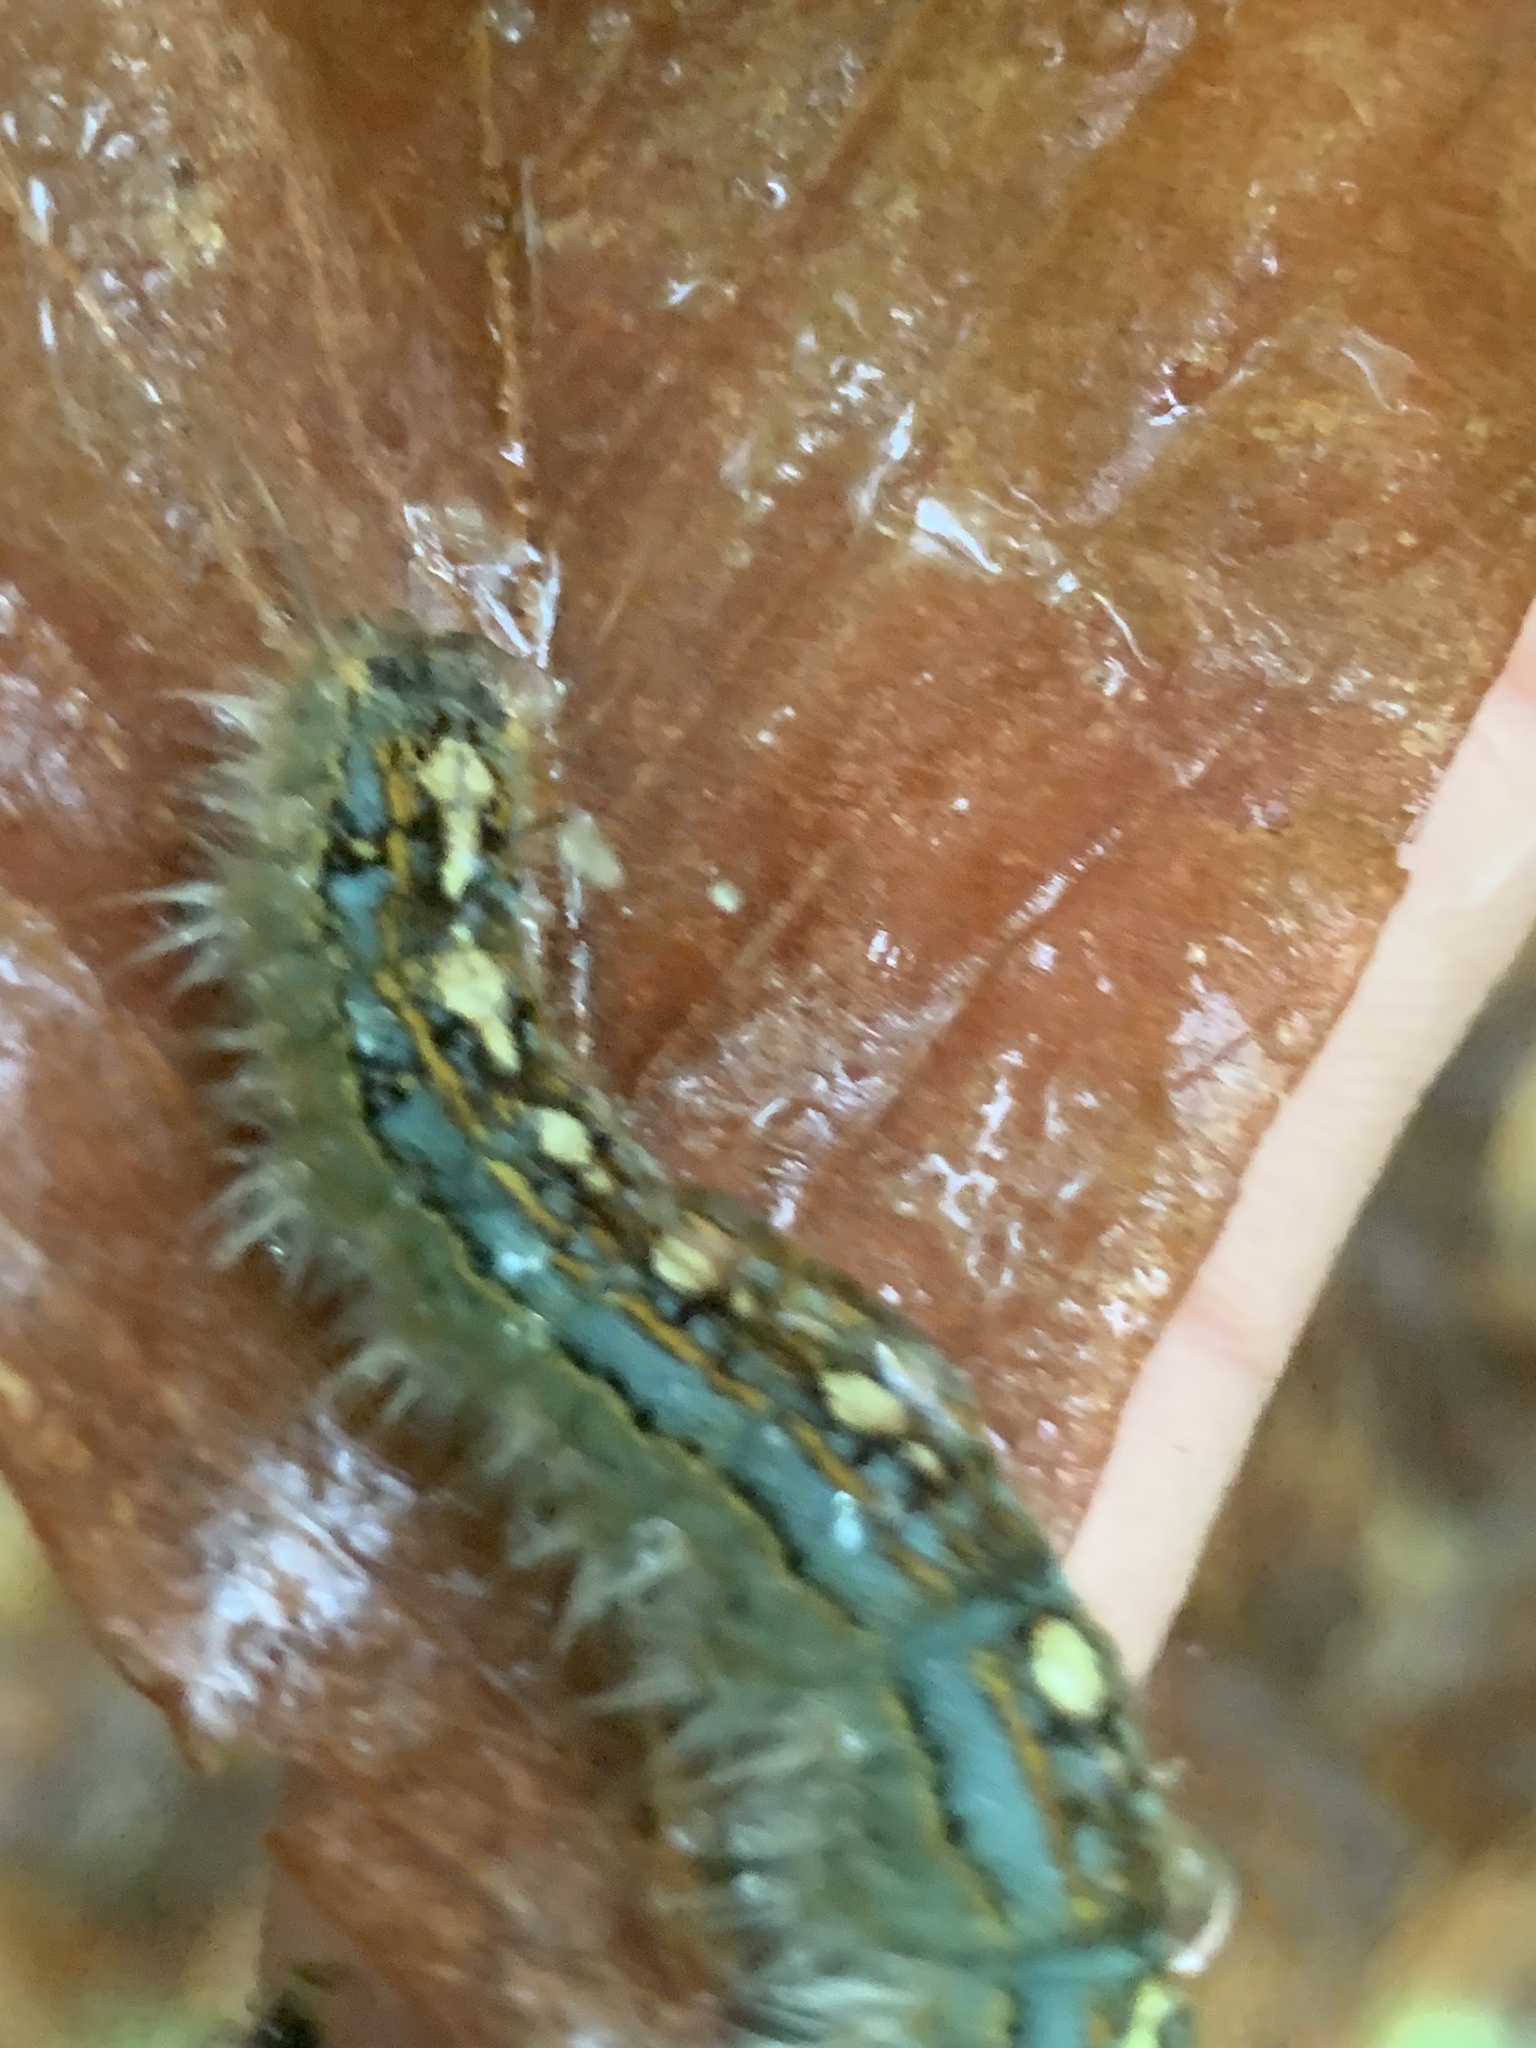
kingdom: Animalia
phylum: Arthropoda
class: Insecta
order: Lepidoptera
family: Lasiocampidae
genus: Malacosoma
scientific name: Malacosoma disstria
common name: Forest tent caterpillar
